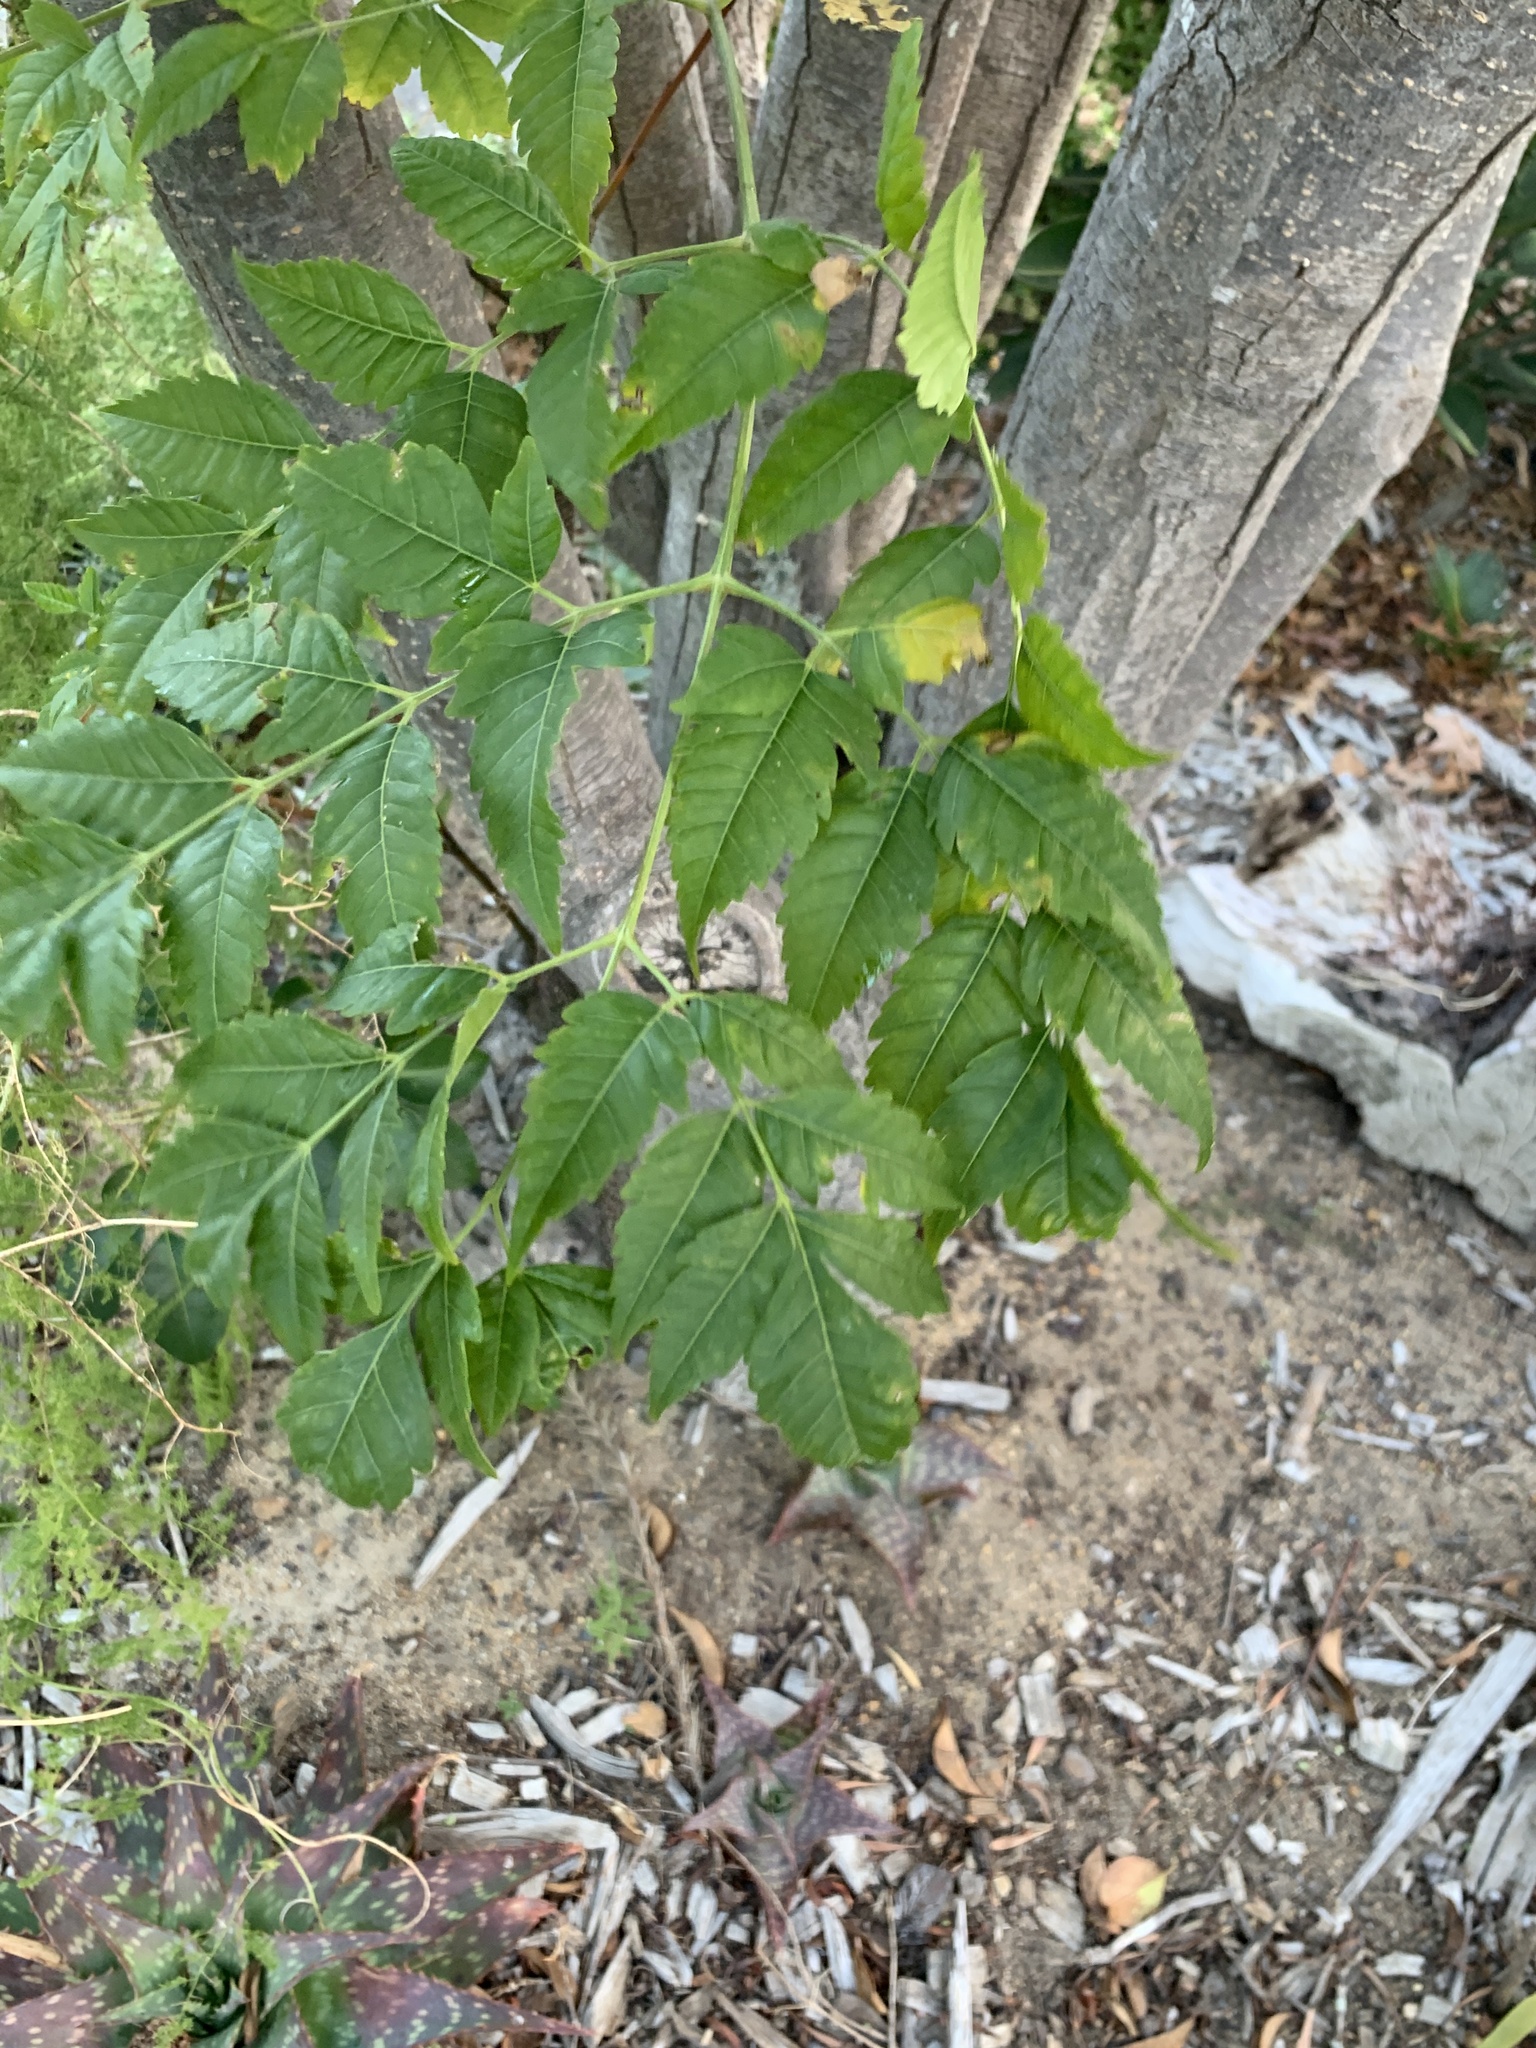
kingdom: Plantae
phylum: Tracheophyta
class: Magnoliopsida
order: Sapindales
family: Meliaceae
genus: Melia
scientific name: Melia azedarach
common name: Chinaberrytree
